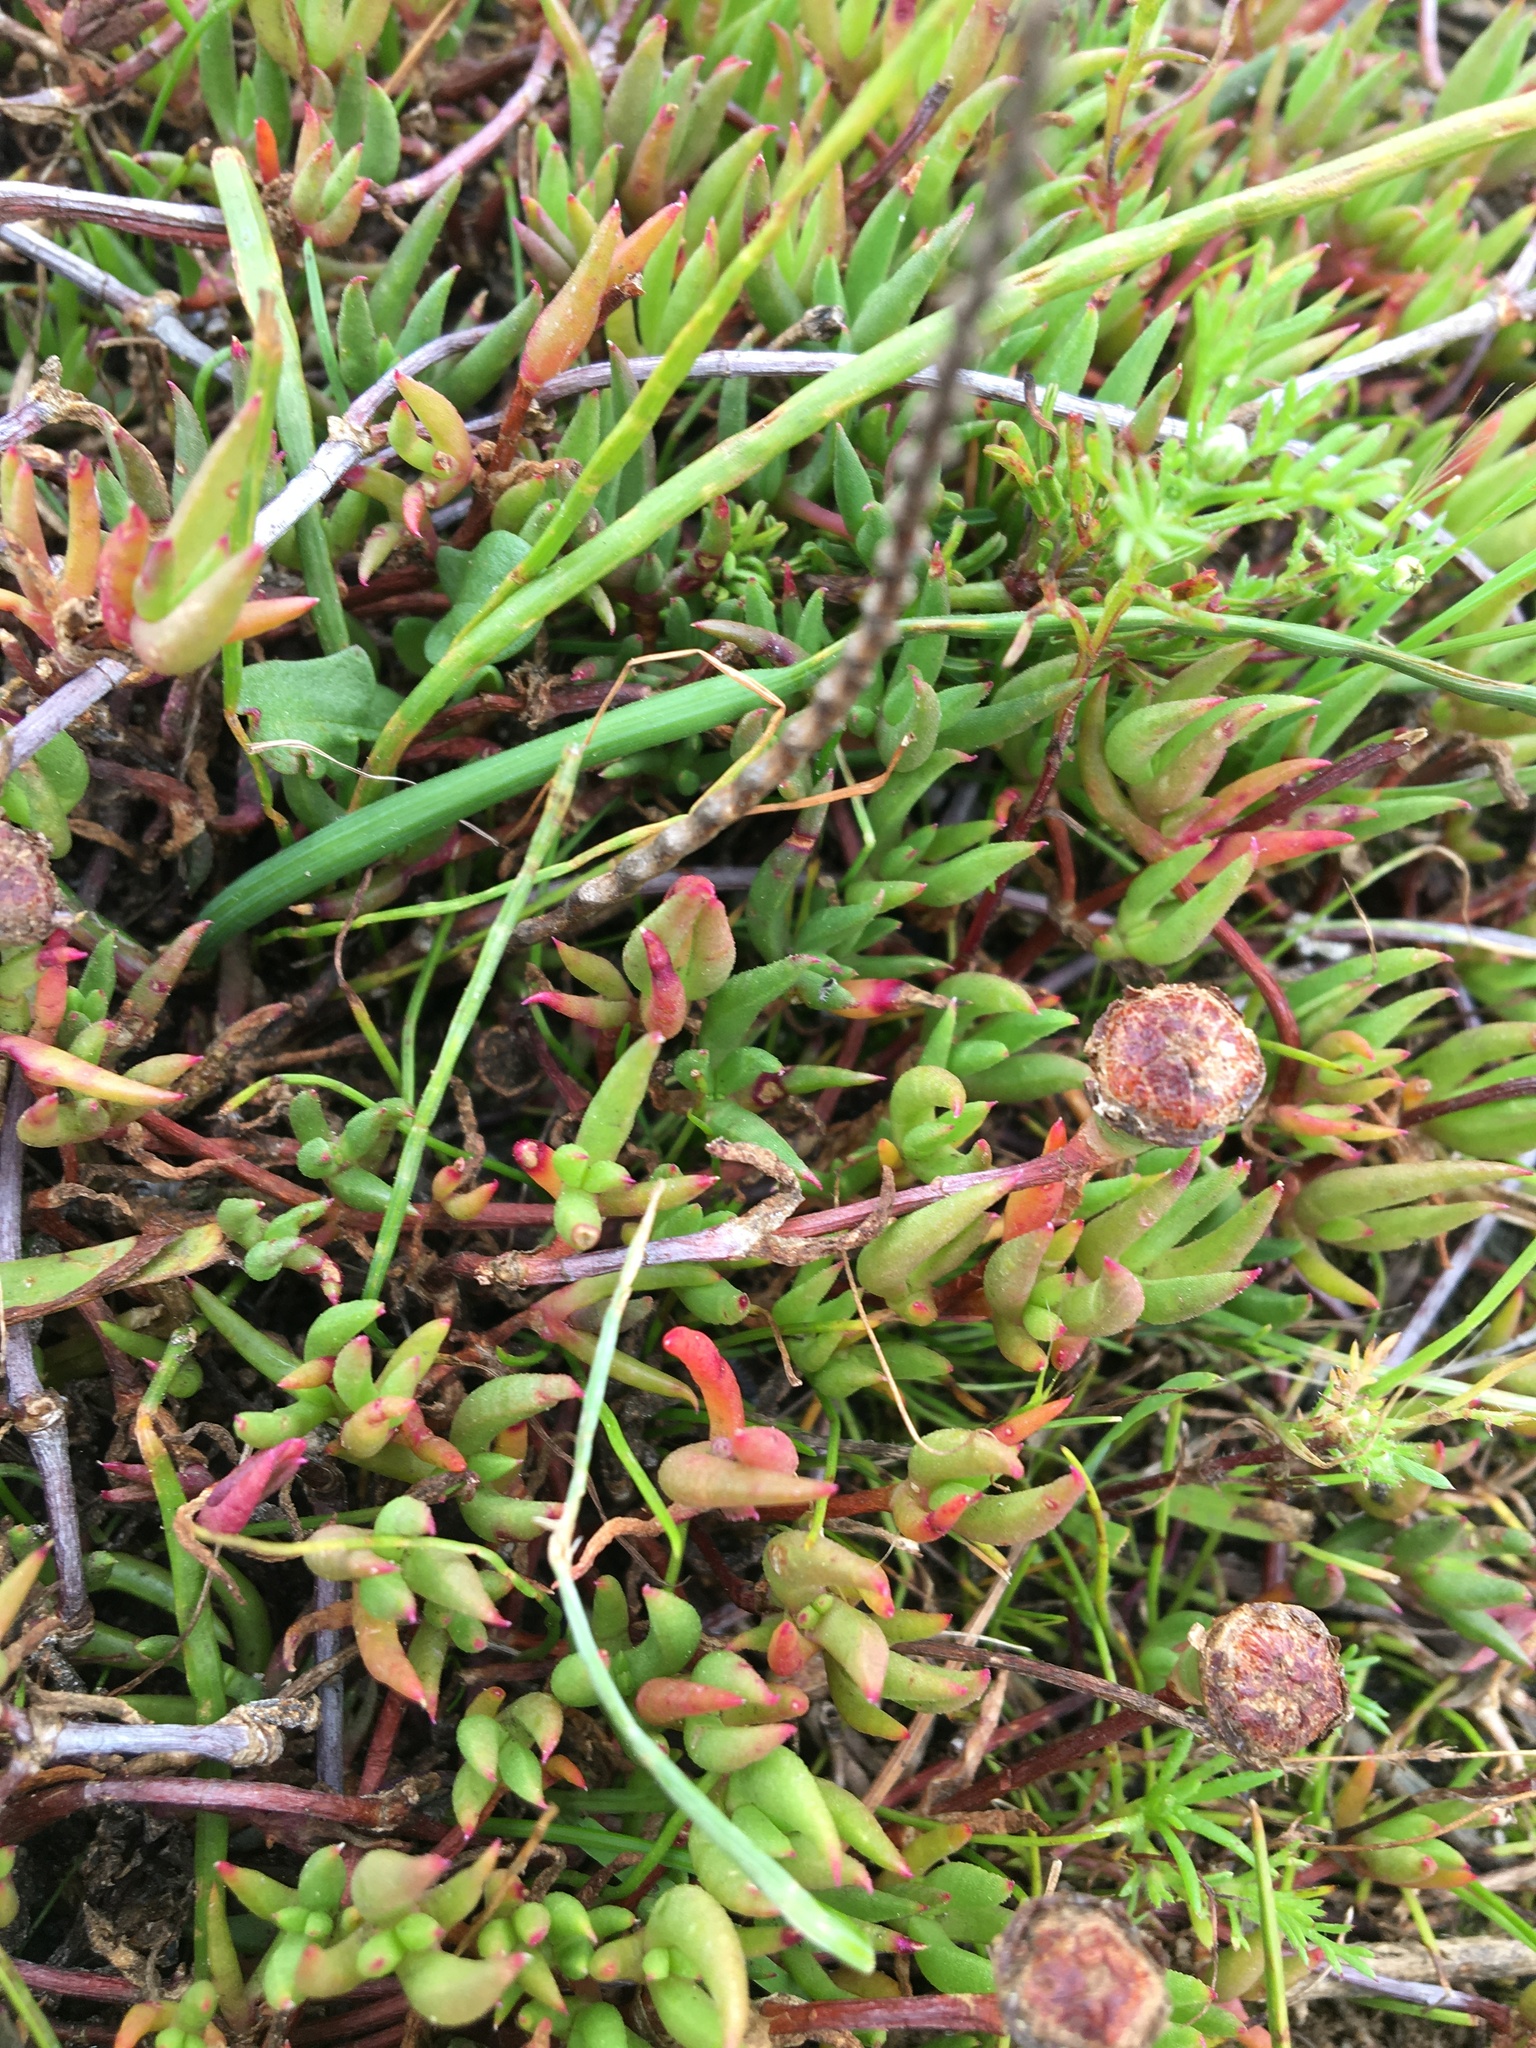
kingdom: Plantae
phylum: Tracheophyta
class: Magnoliopsida
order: Caryophyllales
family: Aizoaceae
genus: Lampranthus
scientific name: Lampranthus filicaulis
